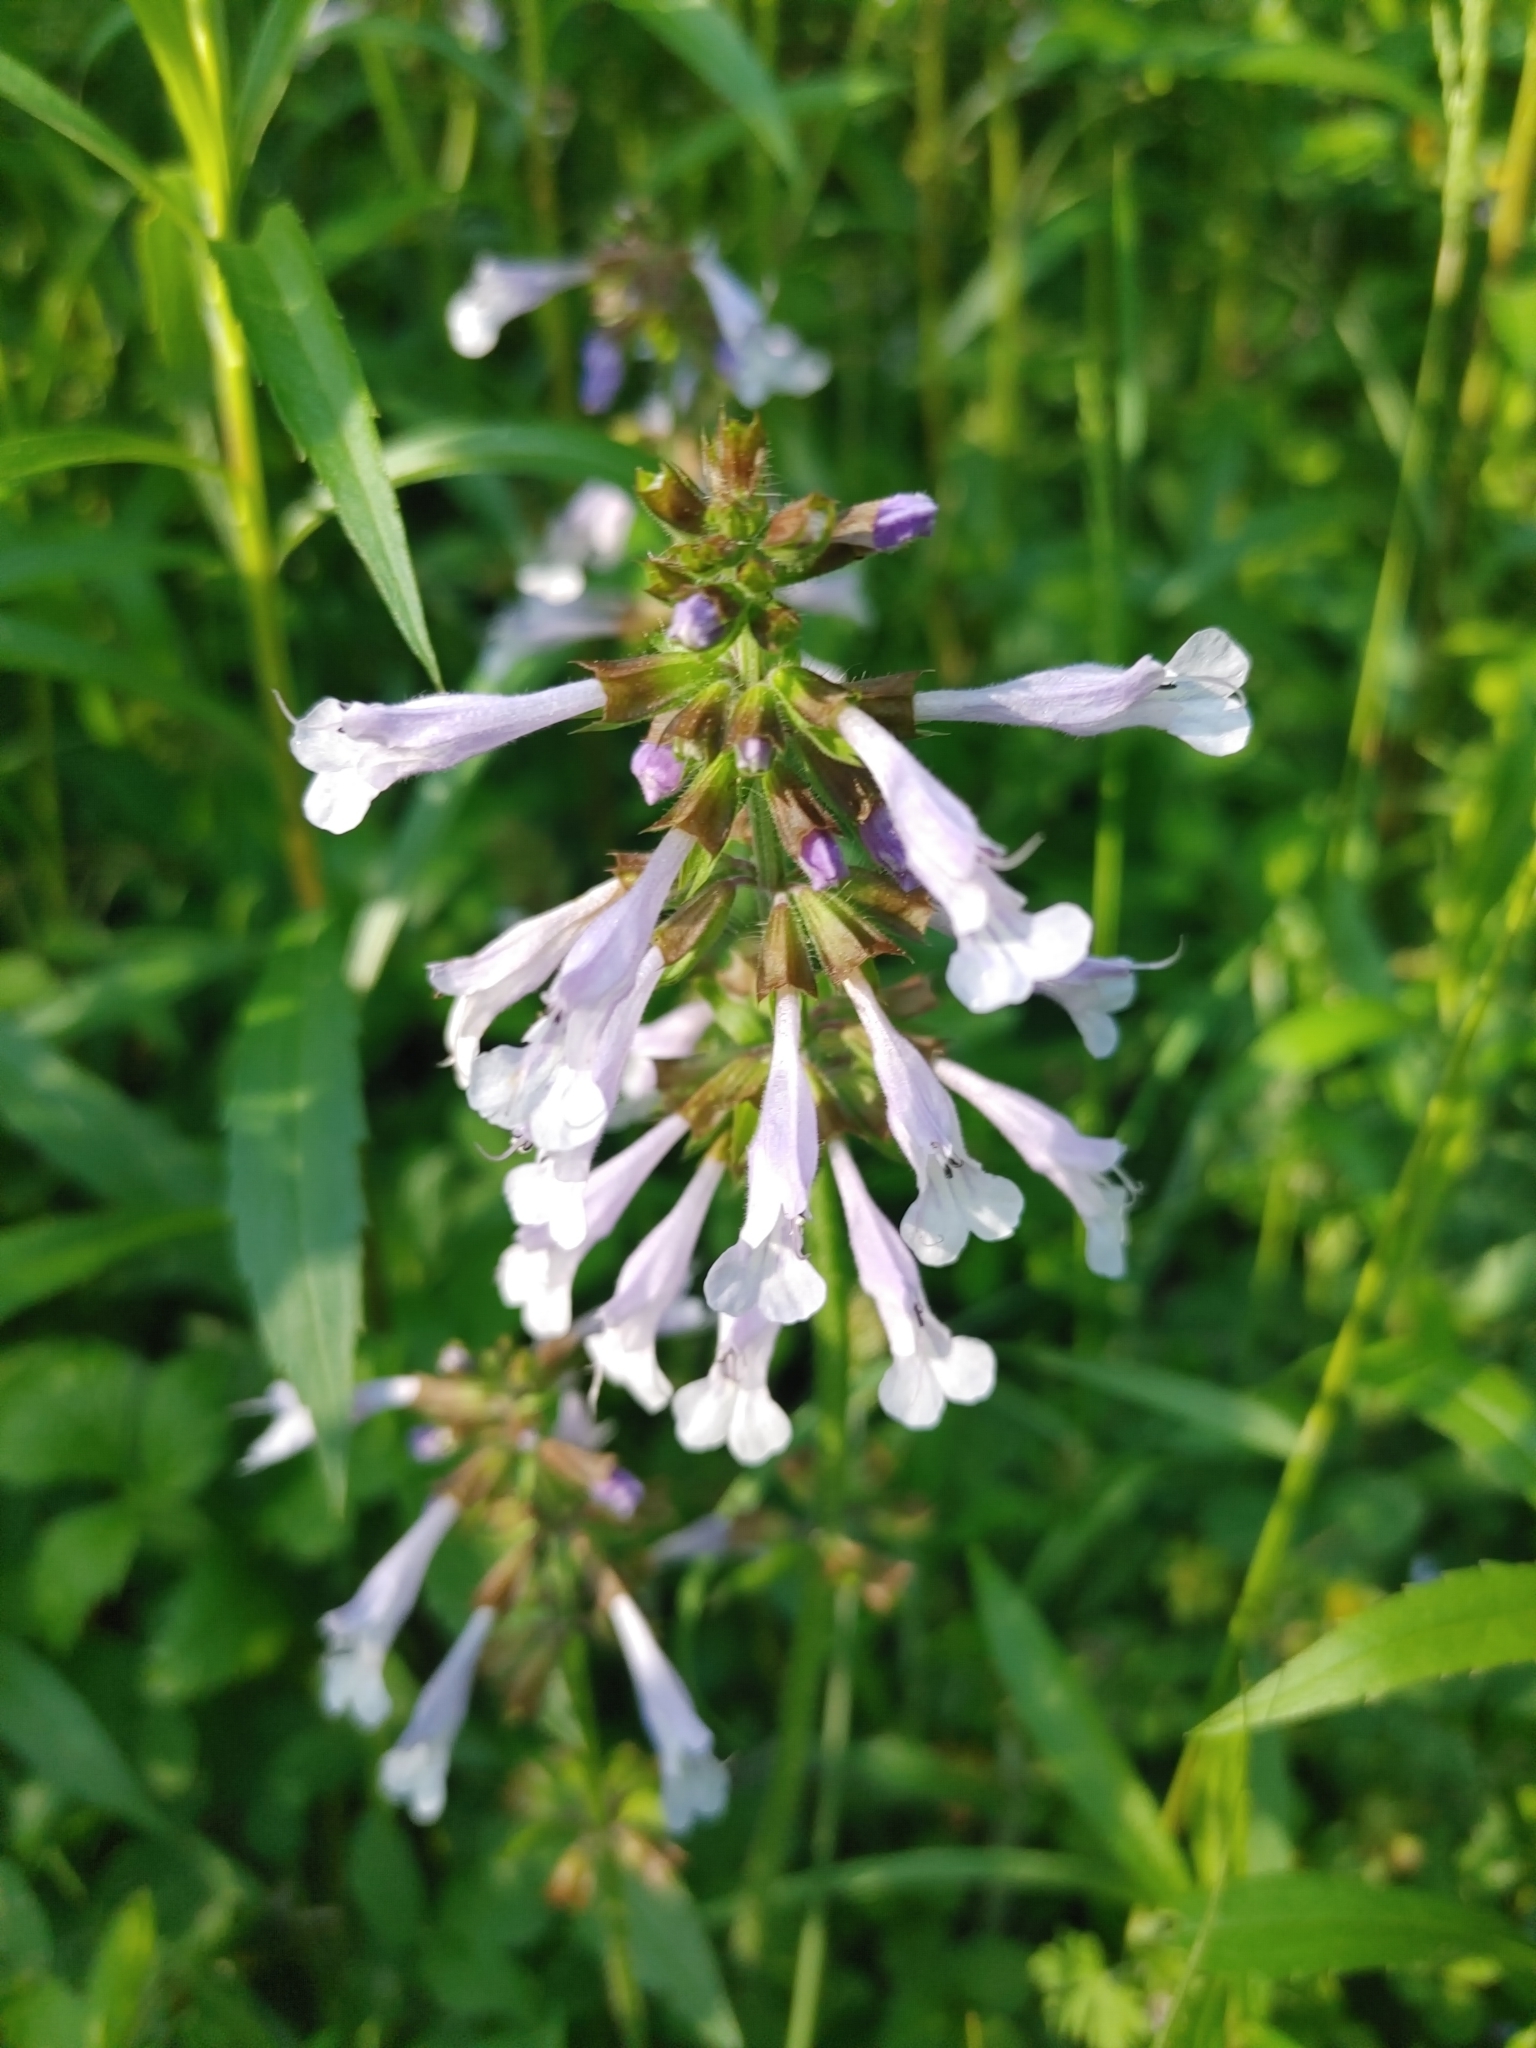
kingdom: Plantae
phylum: Tracheophyta
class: Magnoliopsida
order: Lamiales
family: Lamiaceae
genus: Salvia
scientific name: Salvia lyrata
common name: Cancerweed
